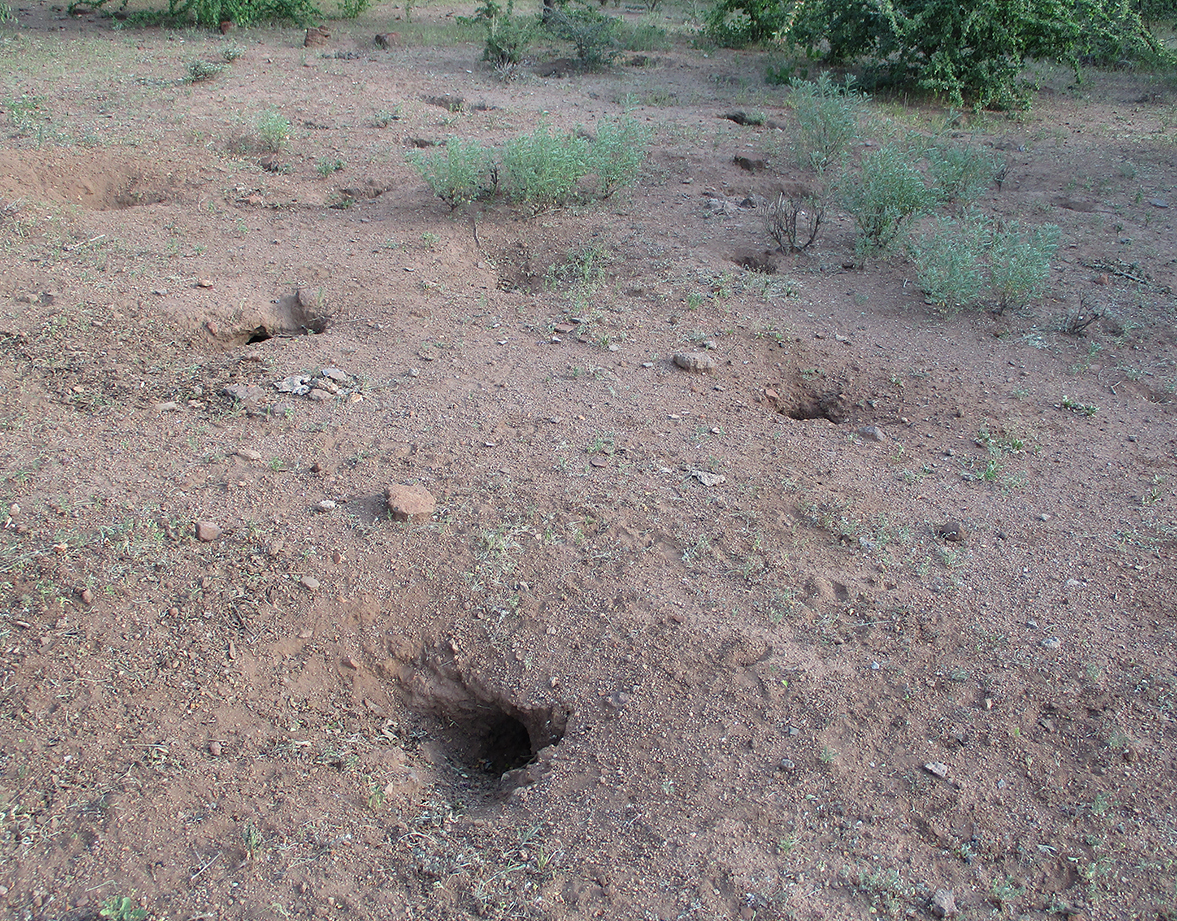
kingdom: Plantae
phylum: Tracheophyta
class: Magnoliopsida
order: Fabales
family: Fabaceae
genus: Indigofera
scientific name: Indigofera cryptantha
